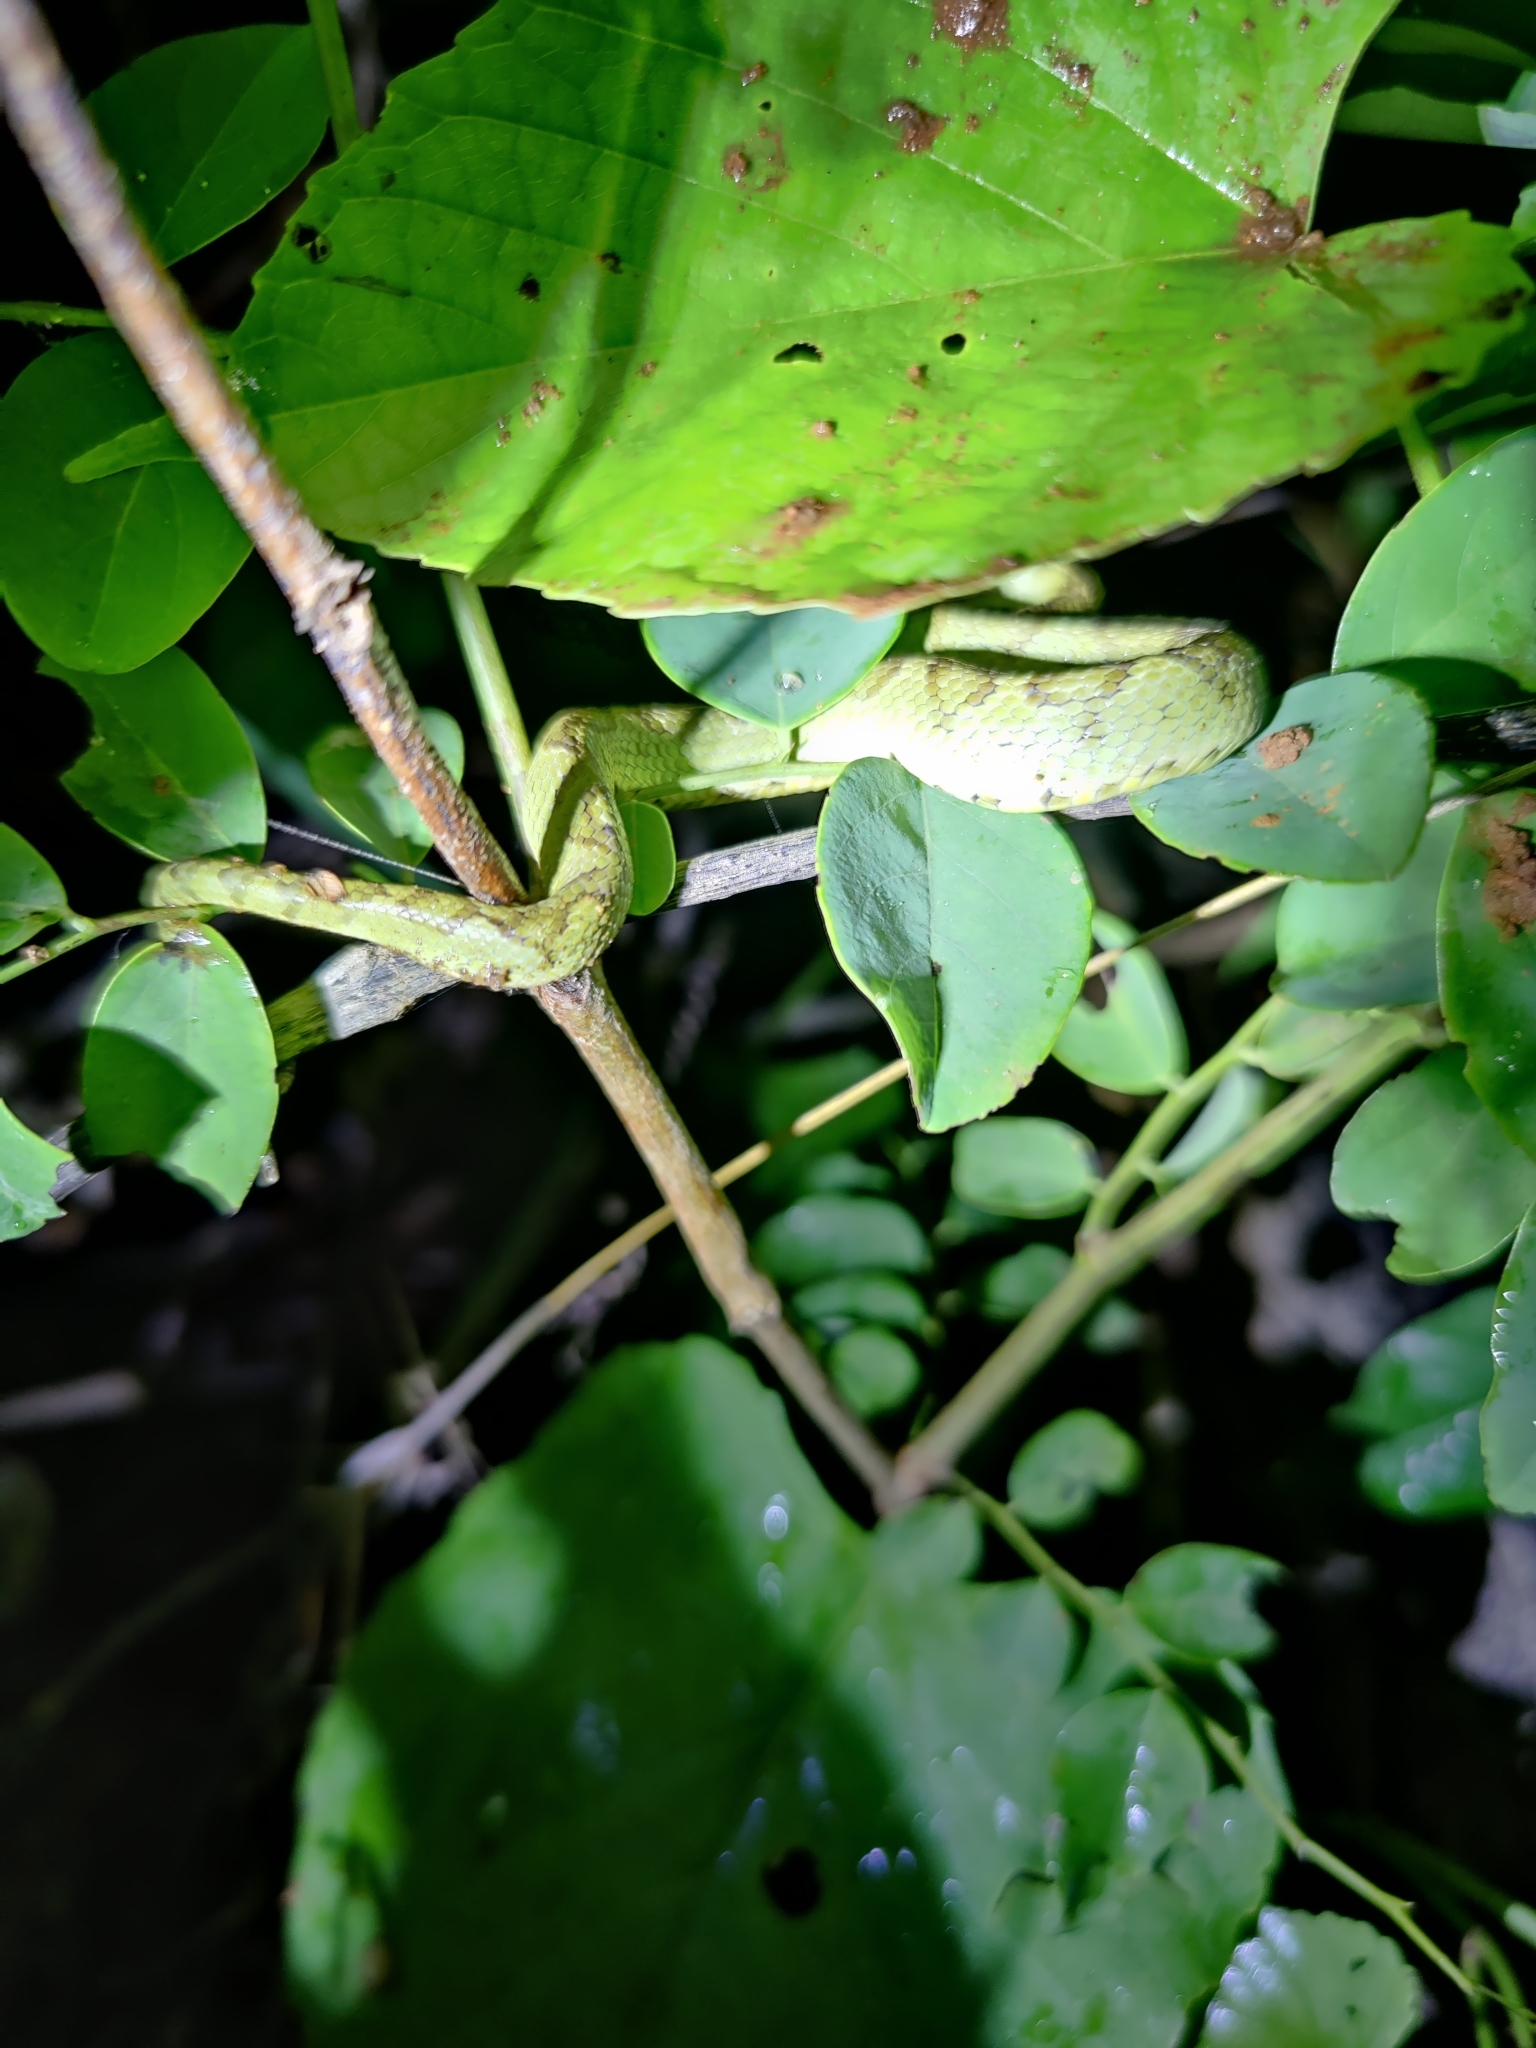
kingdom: Animalia
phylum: Chordata
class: Squamata
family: Viperidae
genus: Craspedocephalus
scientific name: Craspedocephalus gramineus
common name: Common bamboo viper
